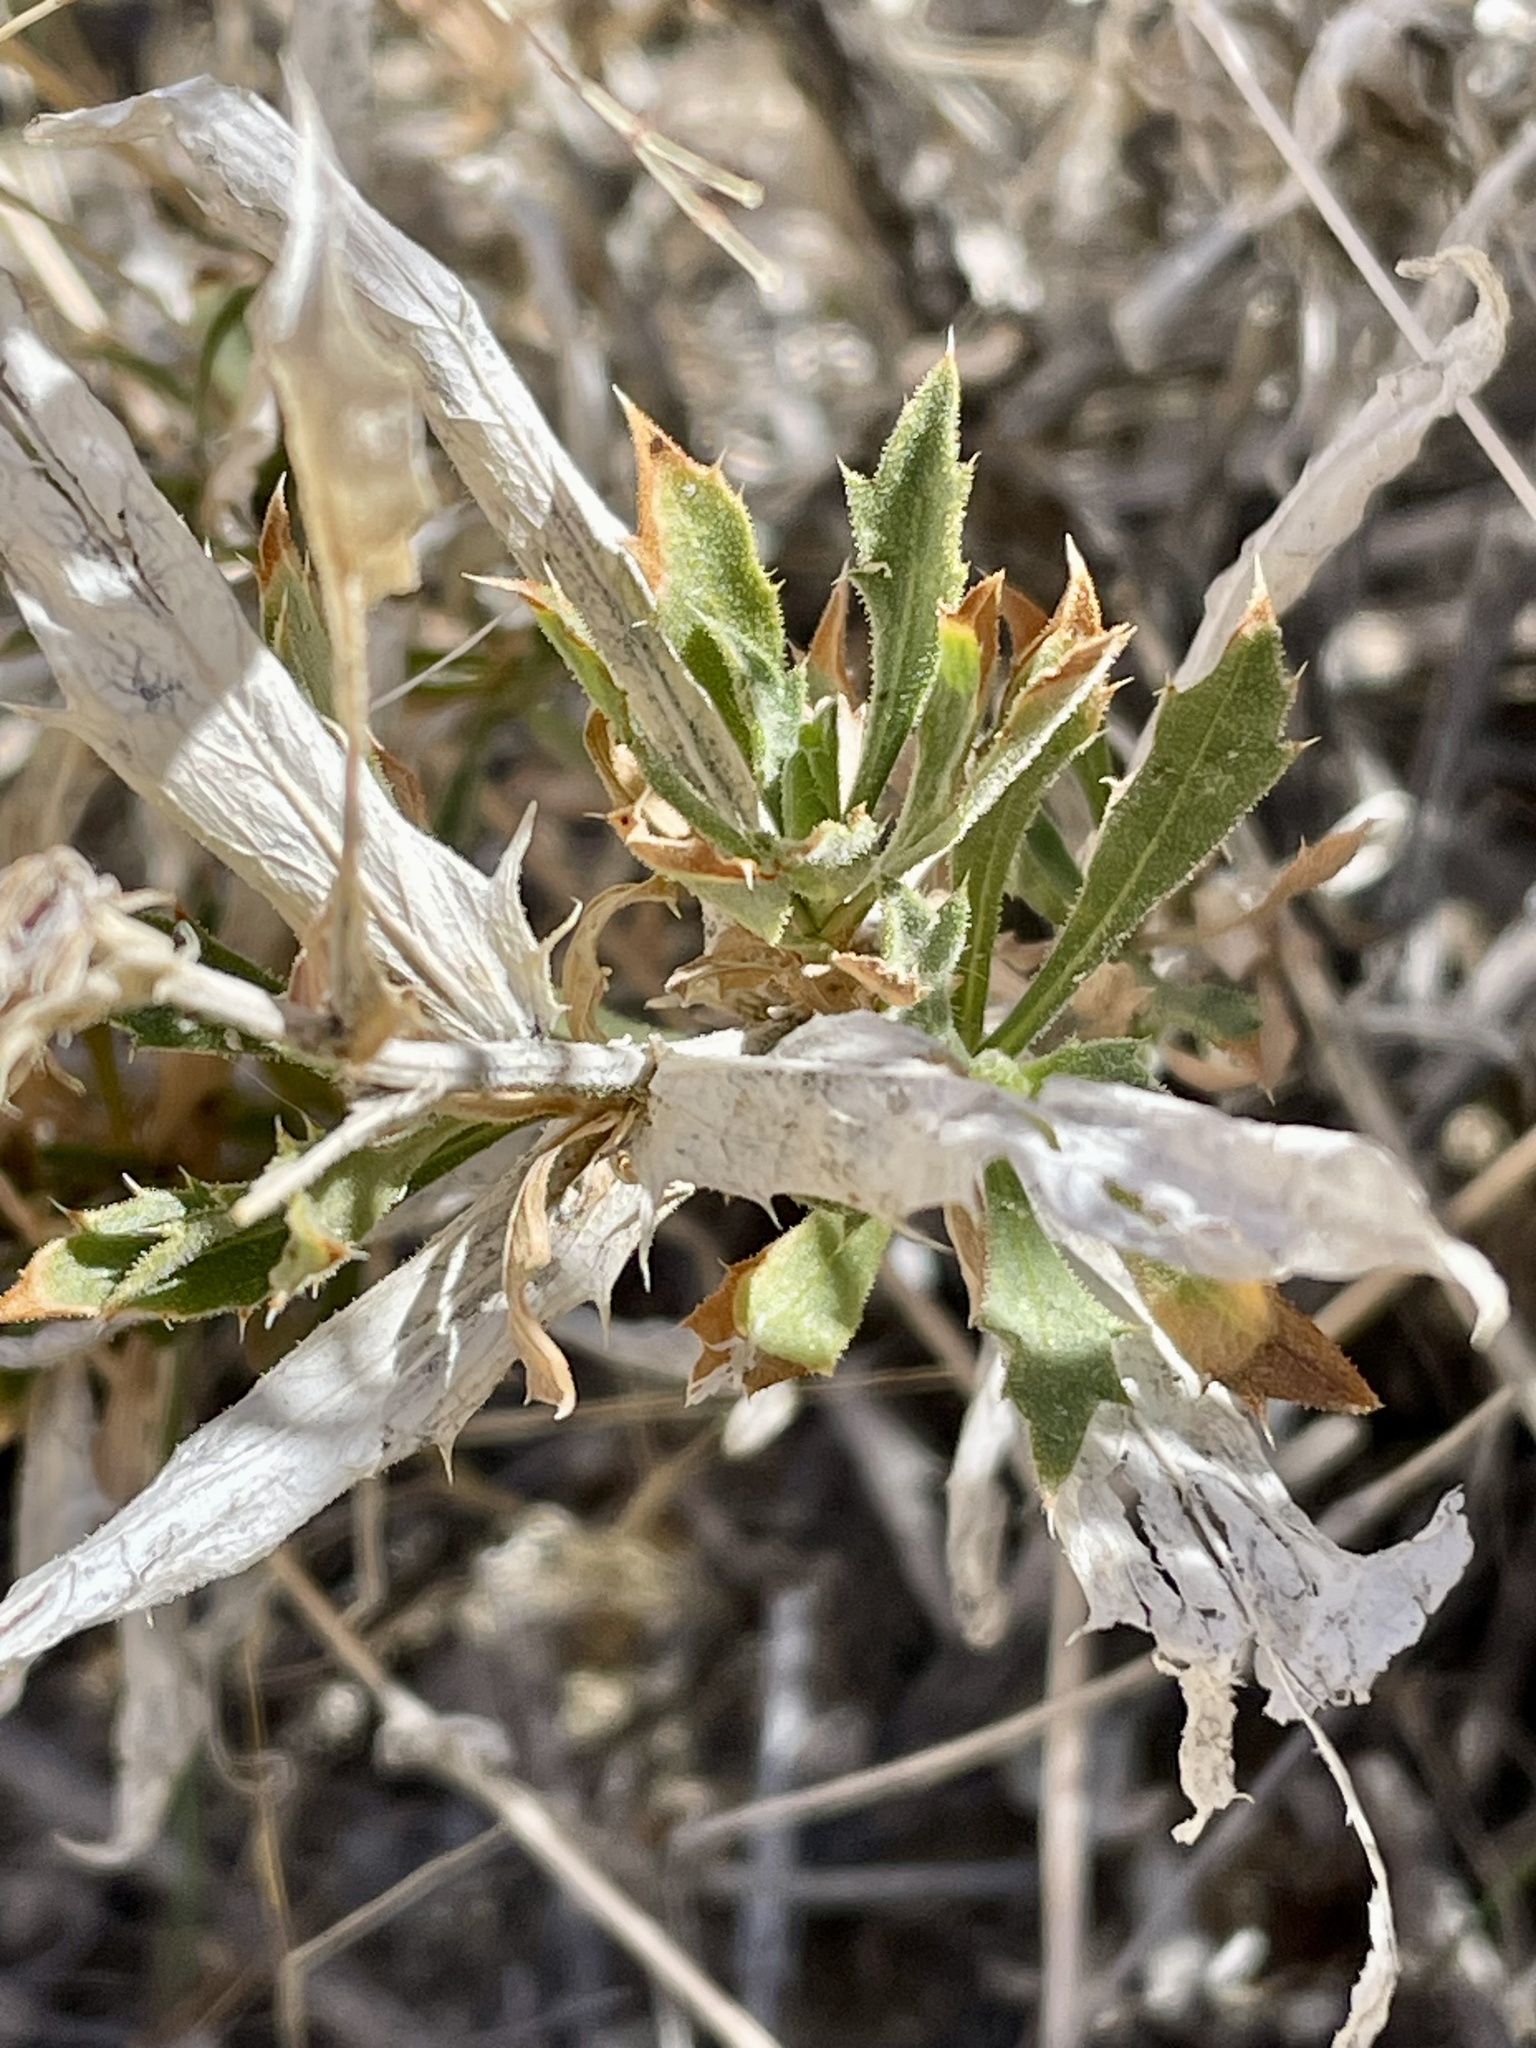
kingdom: Plantae
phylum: Tracheophyta
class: Magnoliopsida
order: Asterales
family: Asteraceae
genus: Xylorhiza
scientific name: Xylorhiza tortifolia
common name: Hurt-leaf woody-aster
